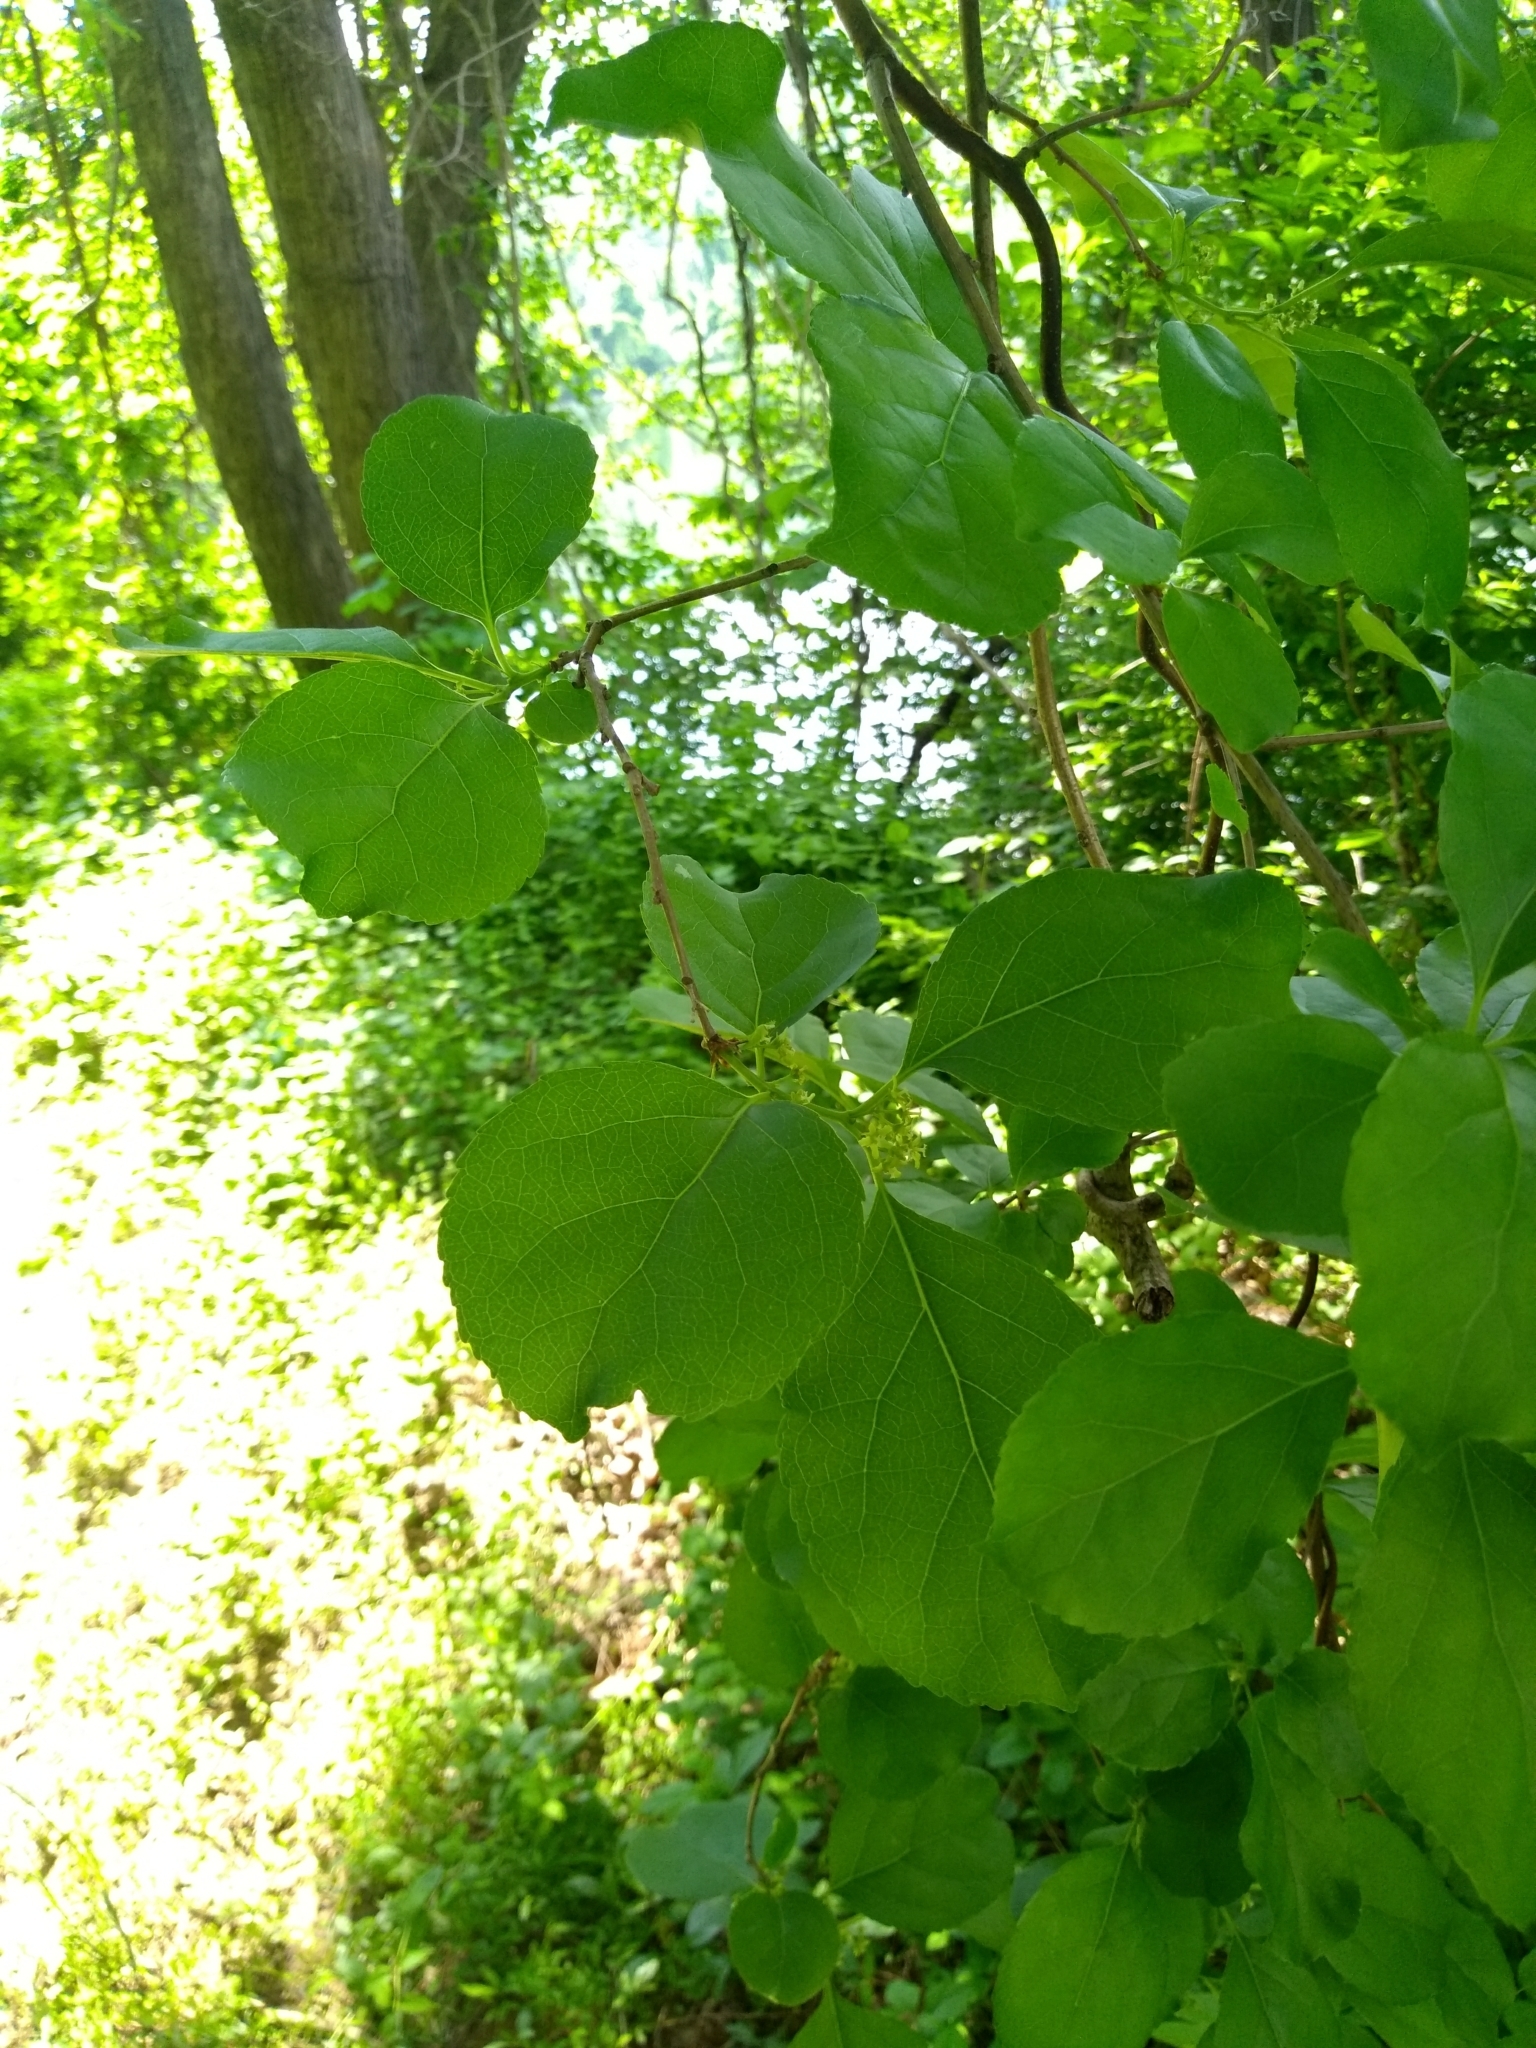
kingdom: Plantae
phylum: Tracheophyta
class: Magnoliopsida
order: Celastrales
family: Celastraceae
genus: Celastrus
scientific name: Celastrus orbiculatus
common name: Oriental bittersweet
